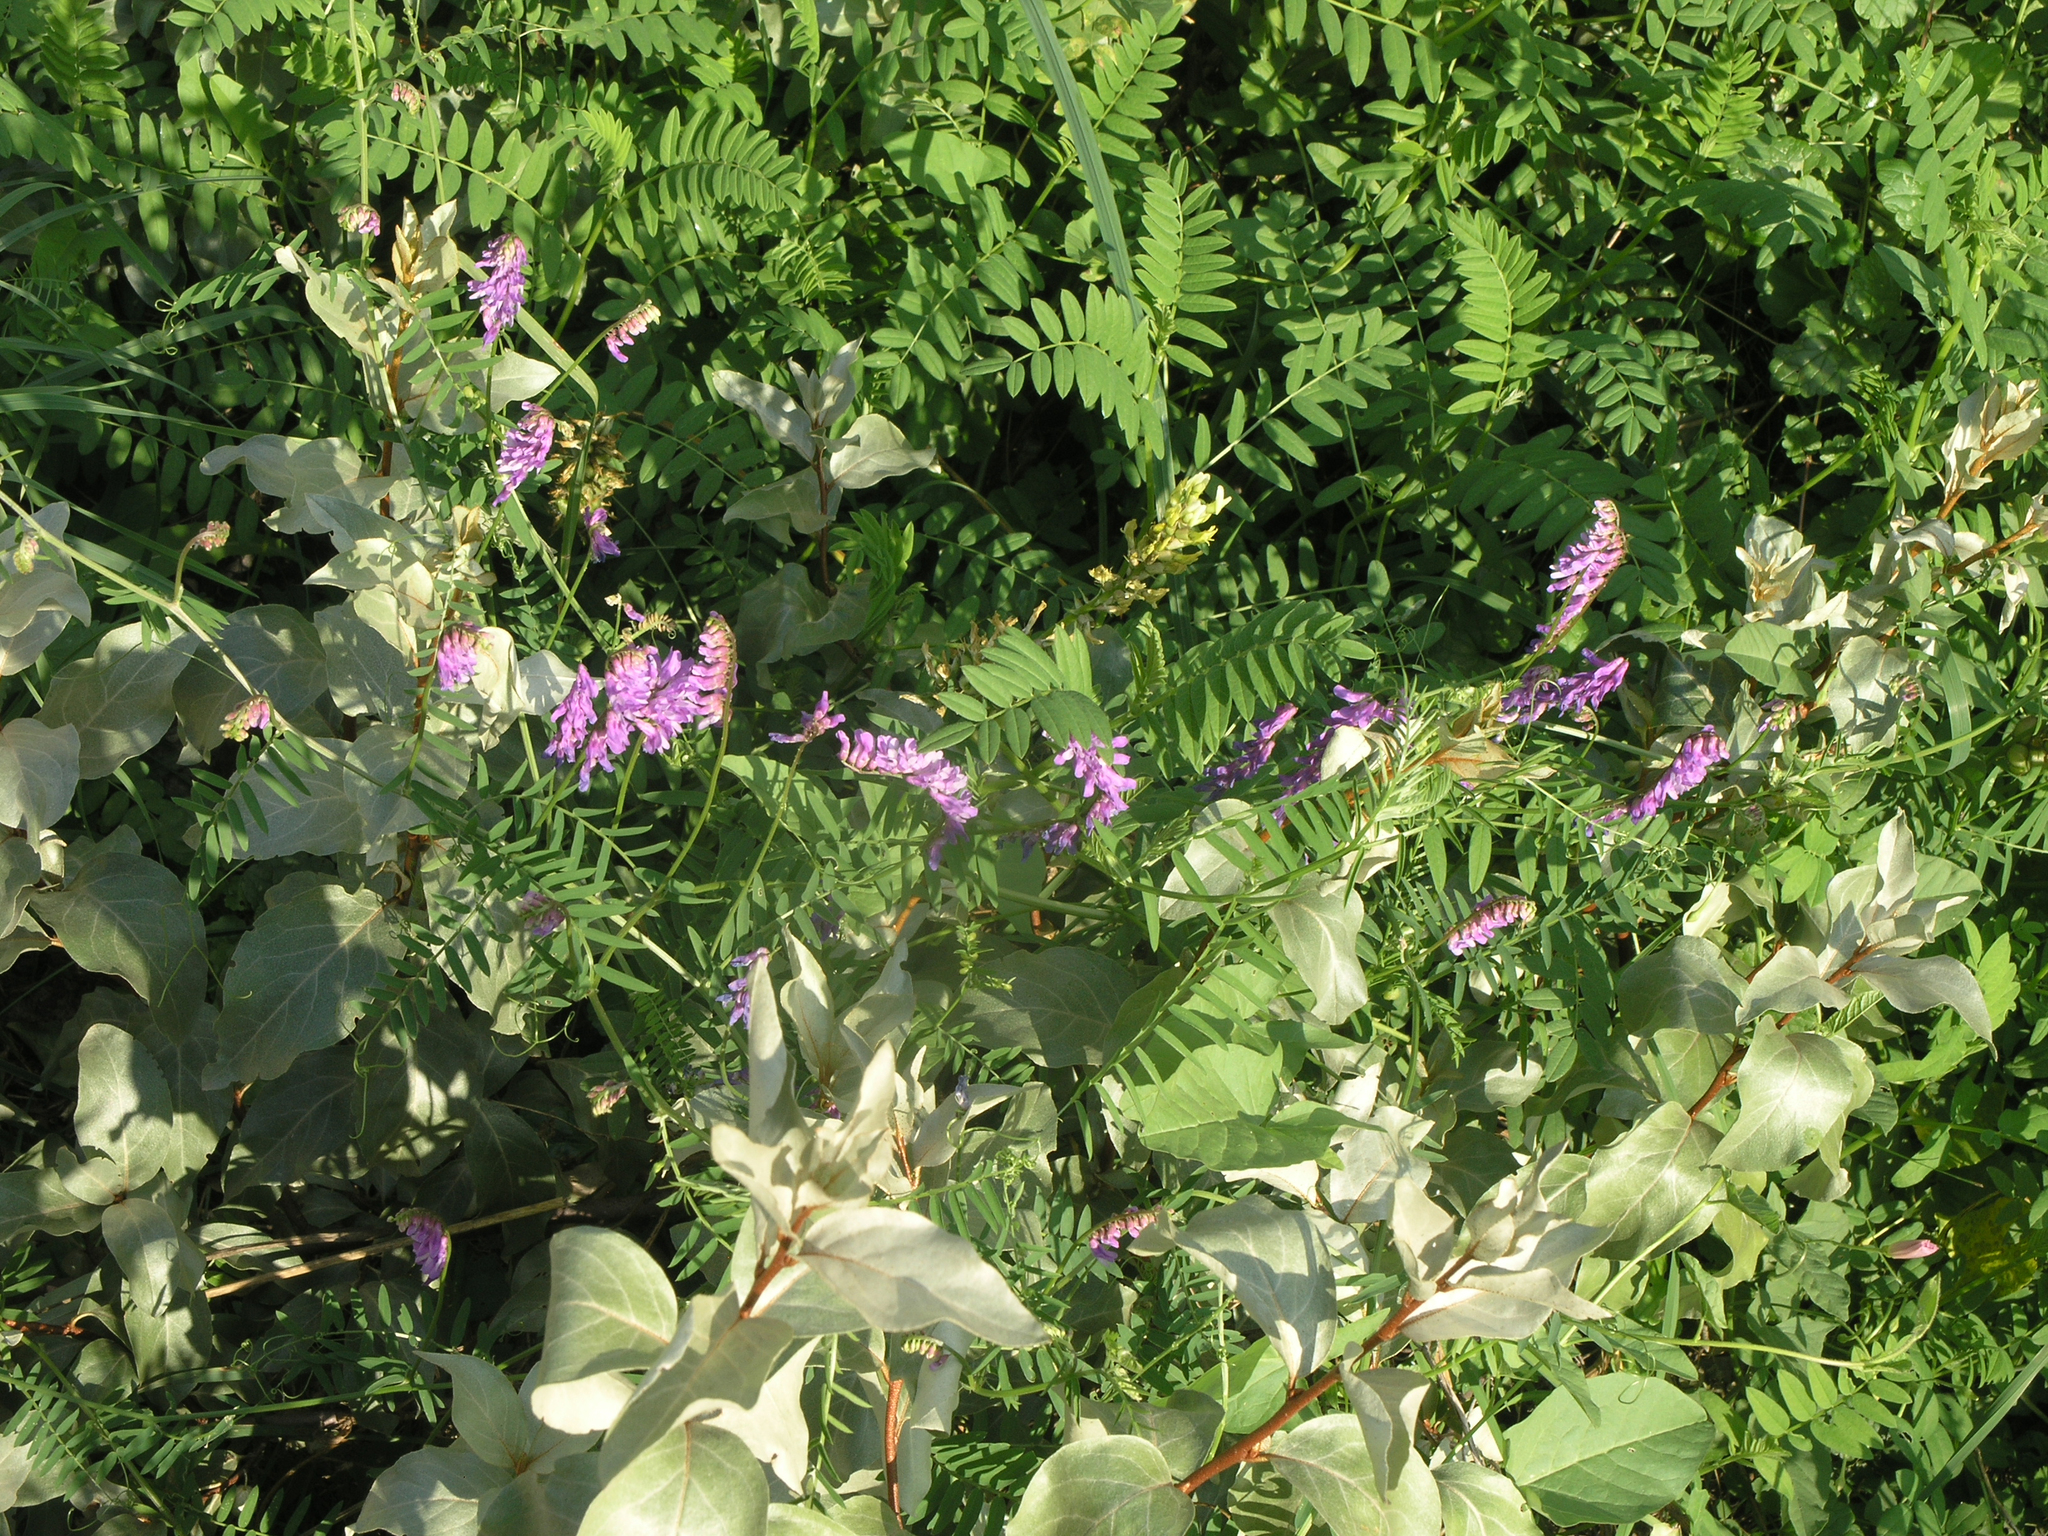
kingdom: Plantae
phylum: Tracheophyta
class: Magnoliopsida
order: Fabales
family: Fabaceae
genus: Vicia
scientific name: Vicia amoena
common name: Cheder ebs
